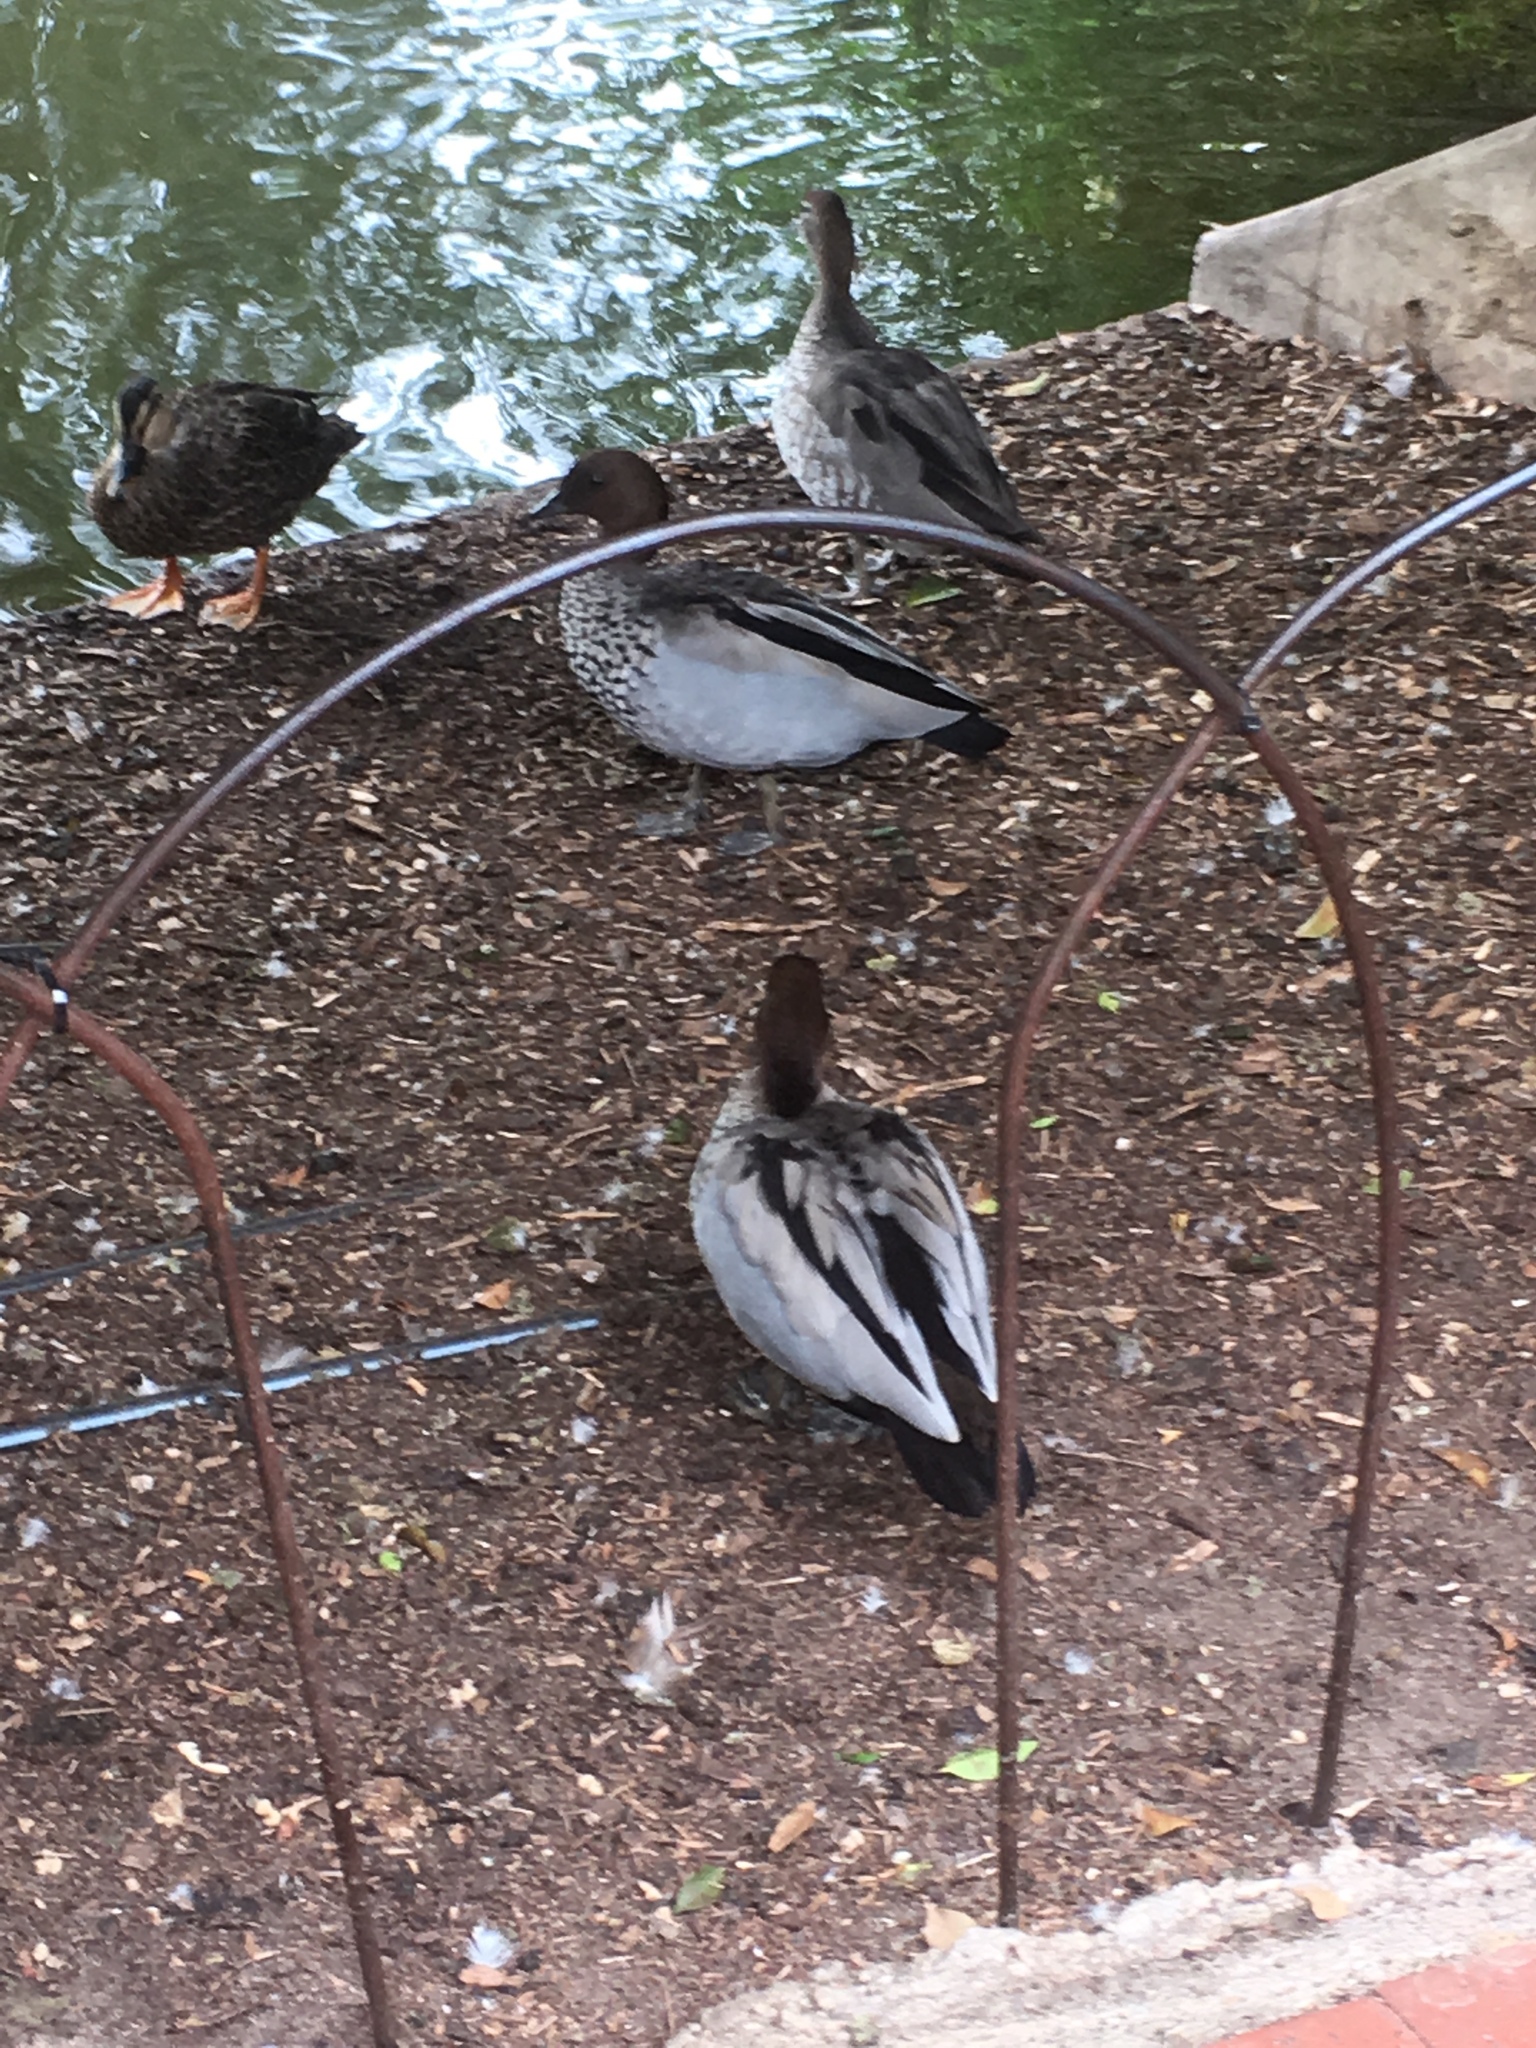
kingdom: Animalia
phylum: Chordata
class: Aves
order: Anseriformes
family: Anatidae
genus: Chenonetta
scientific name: Chenonetta jubata
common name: Maned duck
